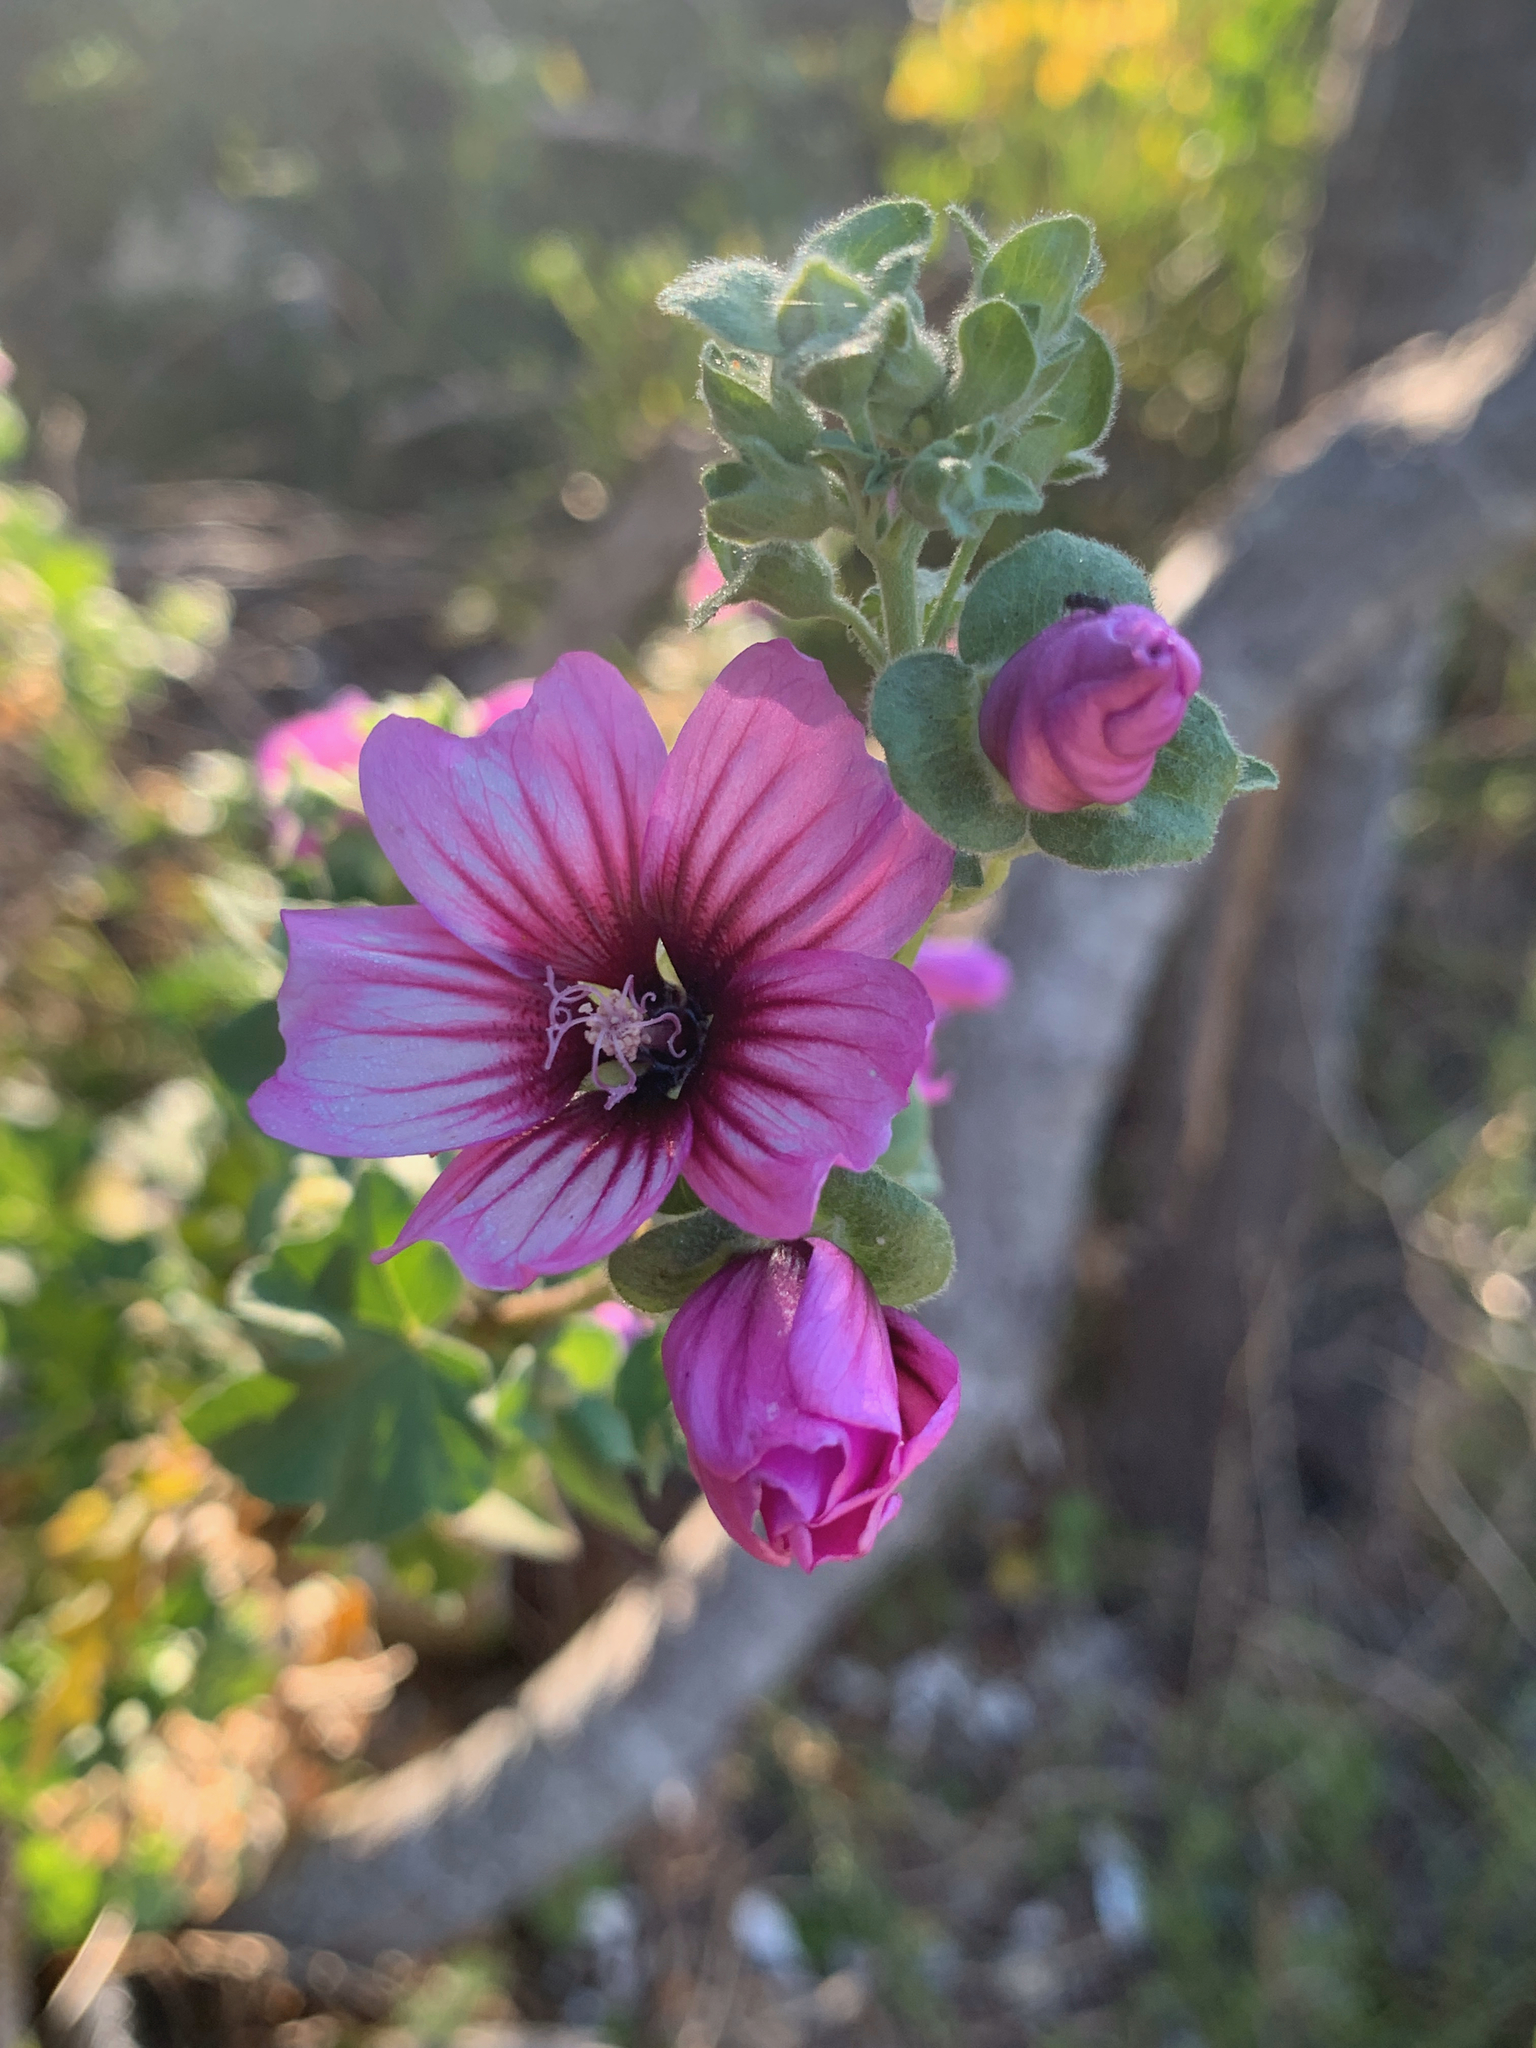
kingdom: Plantae
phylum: Tracheophyta
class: Magnoliopsida
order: Malvales
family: Malvaceae
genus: Malva
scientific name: Malva arborea
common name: Tree mallow
